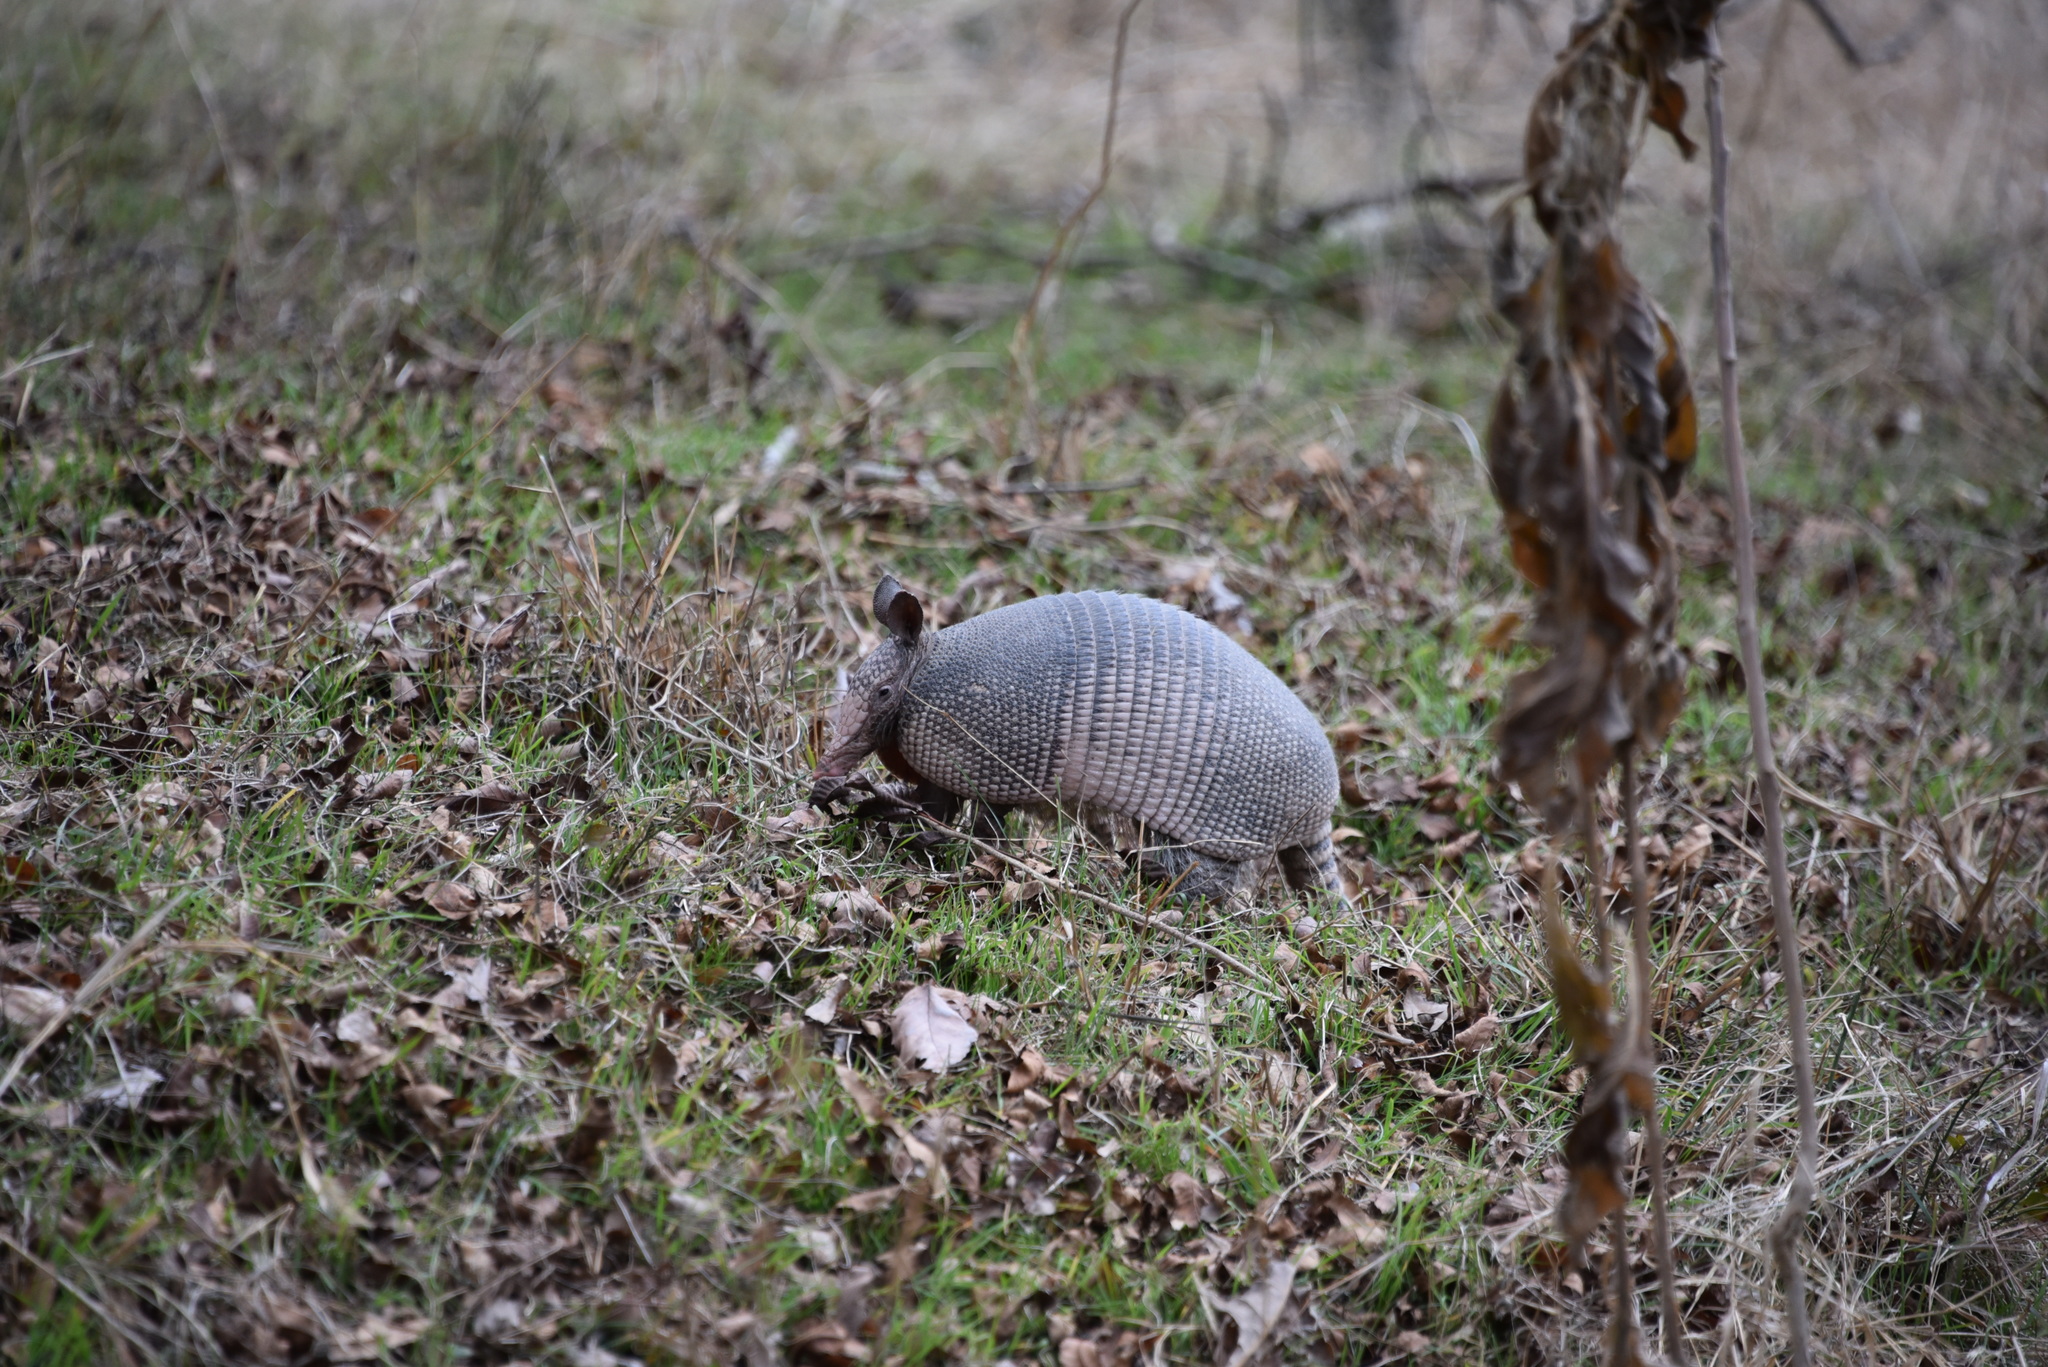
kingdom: Animalia
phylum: Chordata
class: Mammalia
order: Cingulata
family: Dasypodidae
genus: Dasypus
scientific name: Dasypus novemcinctus
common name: Nine-banded armadillo
